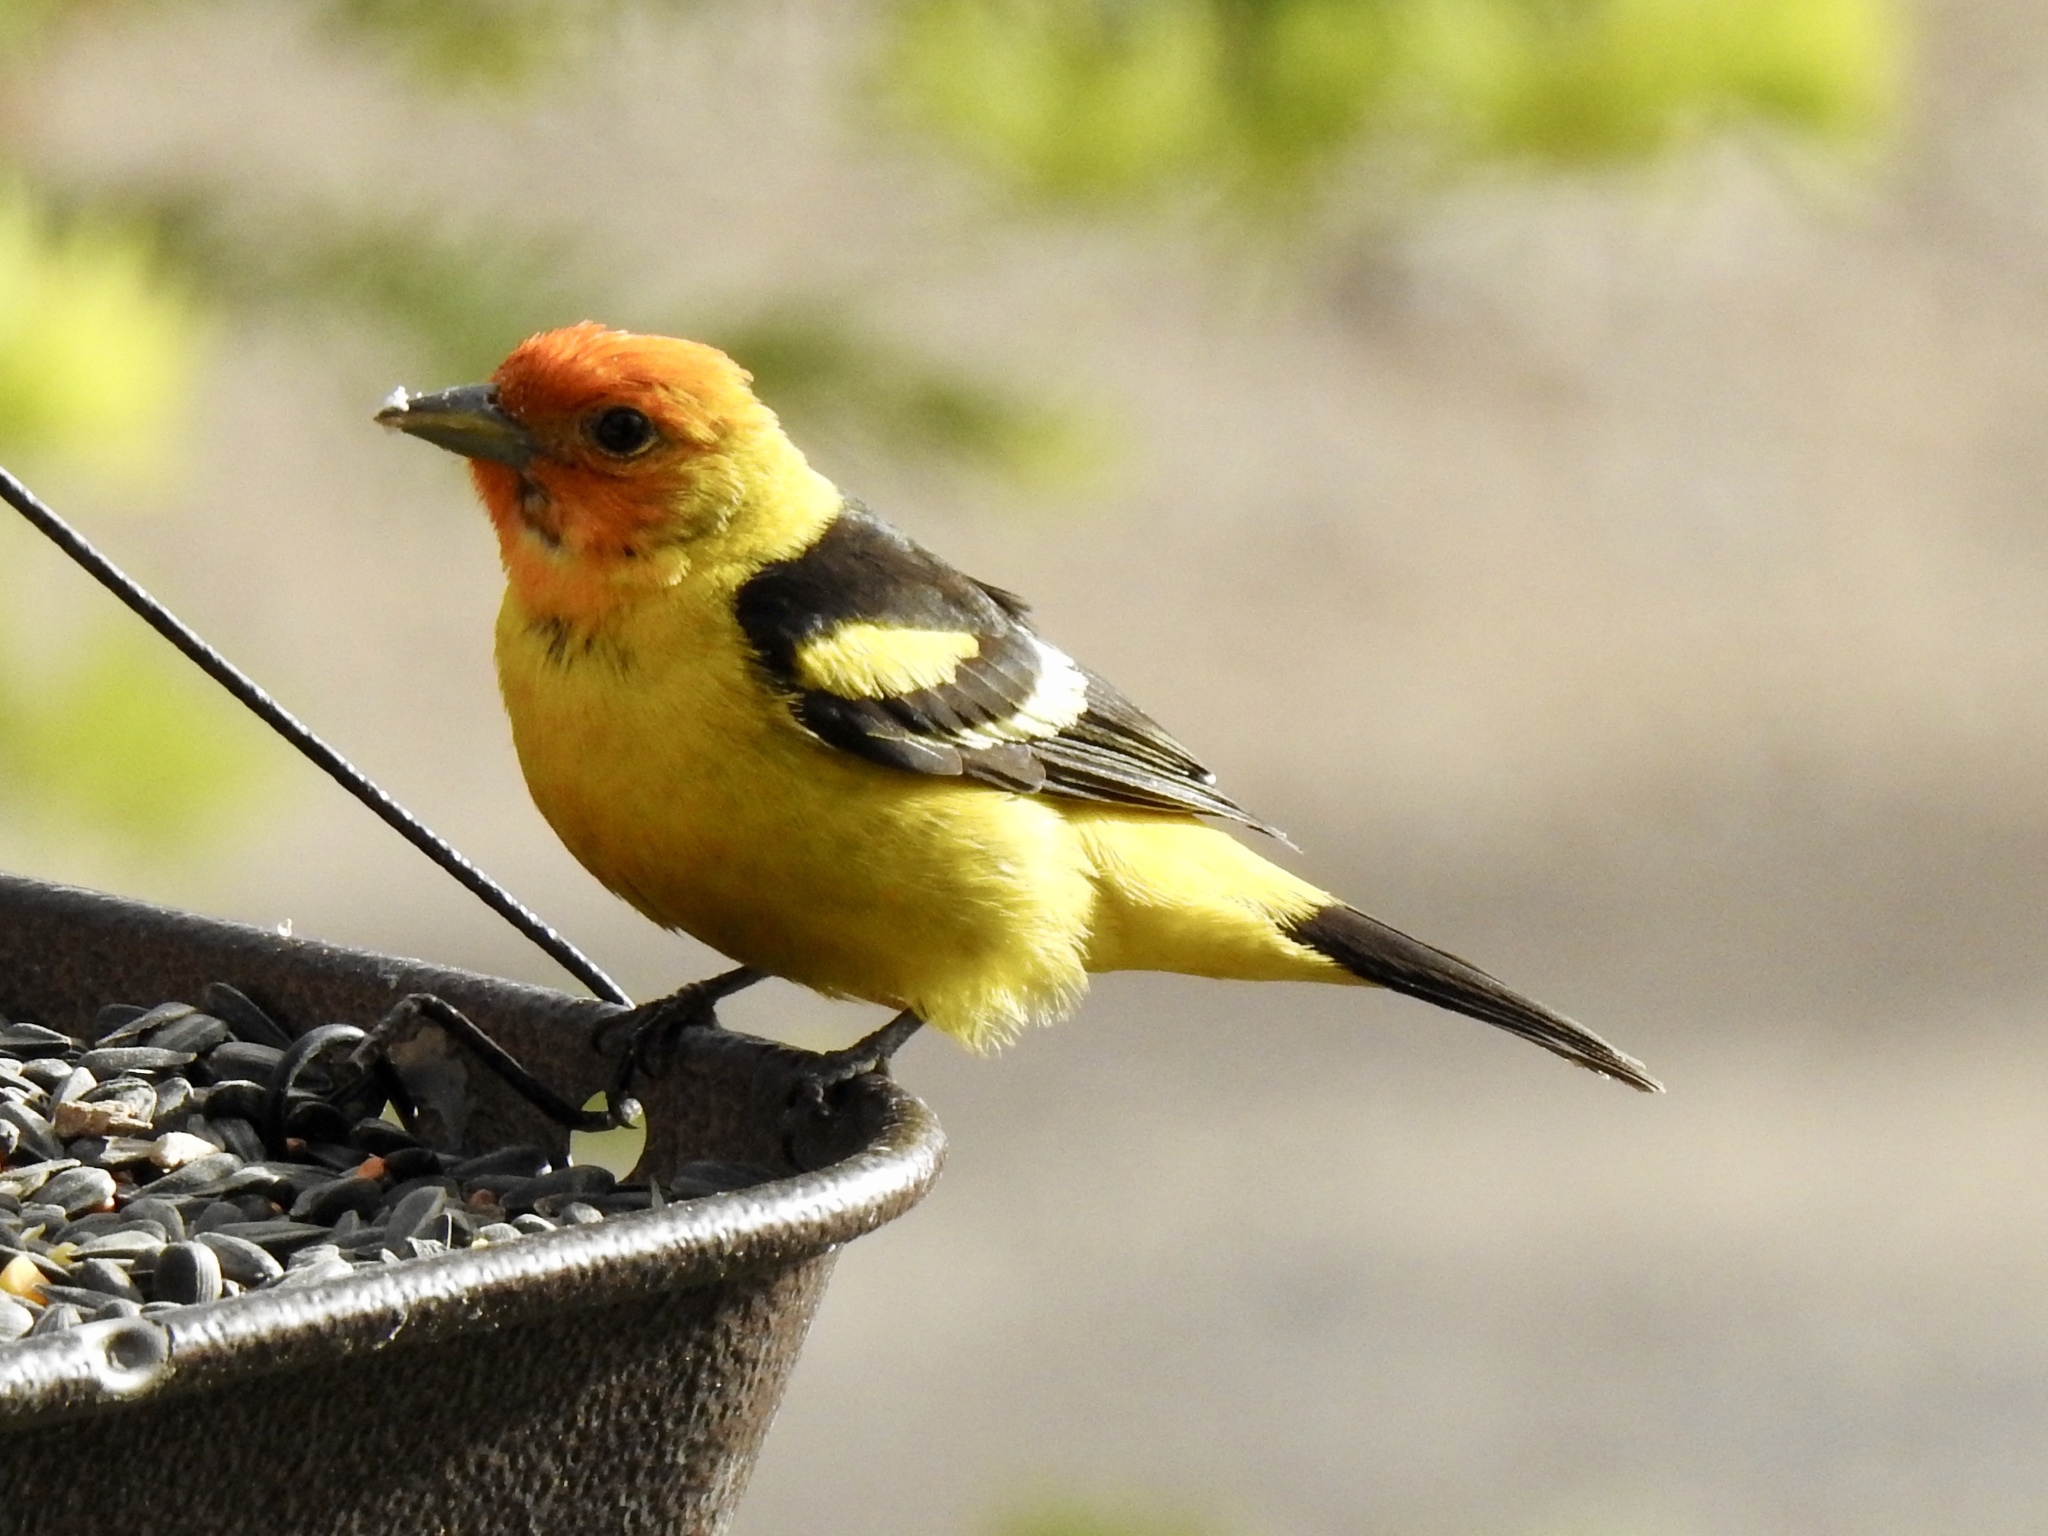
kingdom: Animalia
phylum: Chordata
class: Aves
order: Passeriformes
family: Cardinalidae
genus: Piranga
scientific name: Piranga ludoviciana
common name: Western tanager
